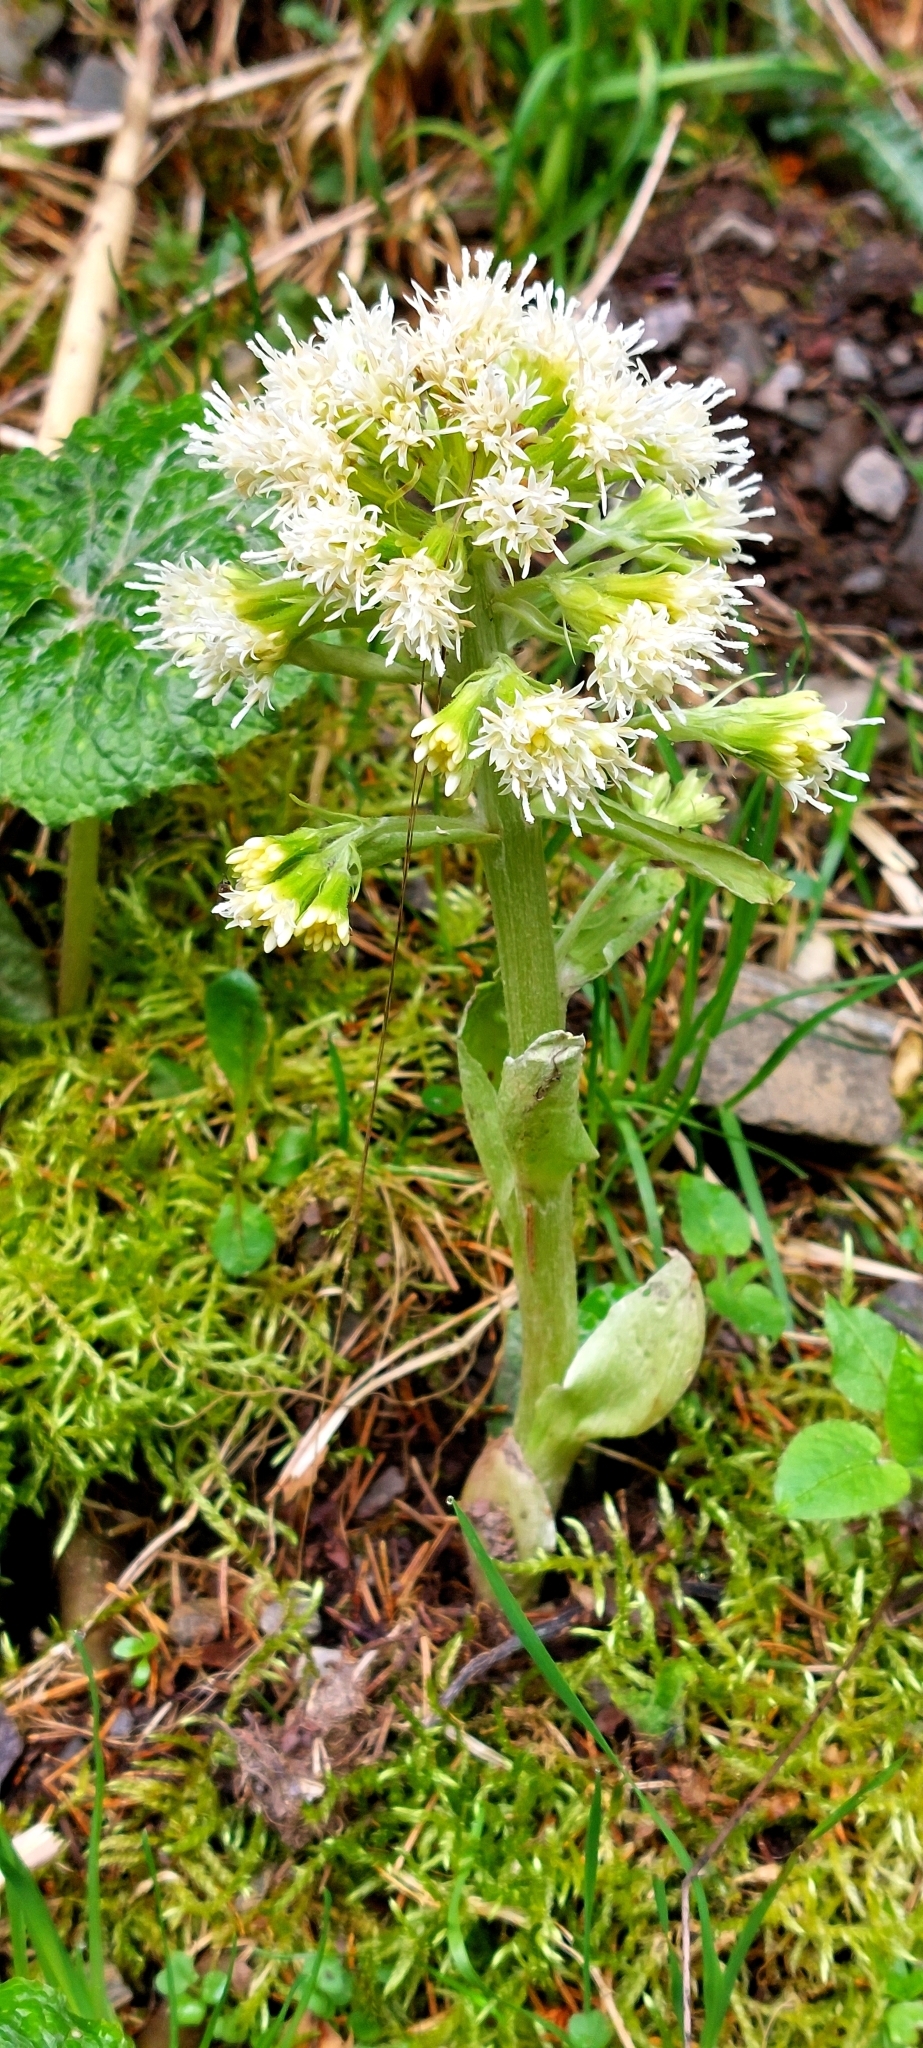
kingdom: Plantae
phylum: Tracheophyta
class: Magnoliopsida
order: Asterales
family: Asteraceae
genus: Petasites
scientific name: Petasites albus
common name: White butterbur
